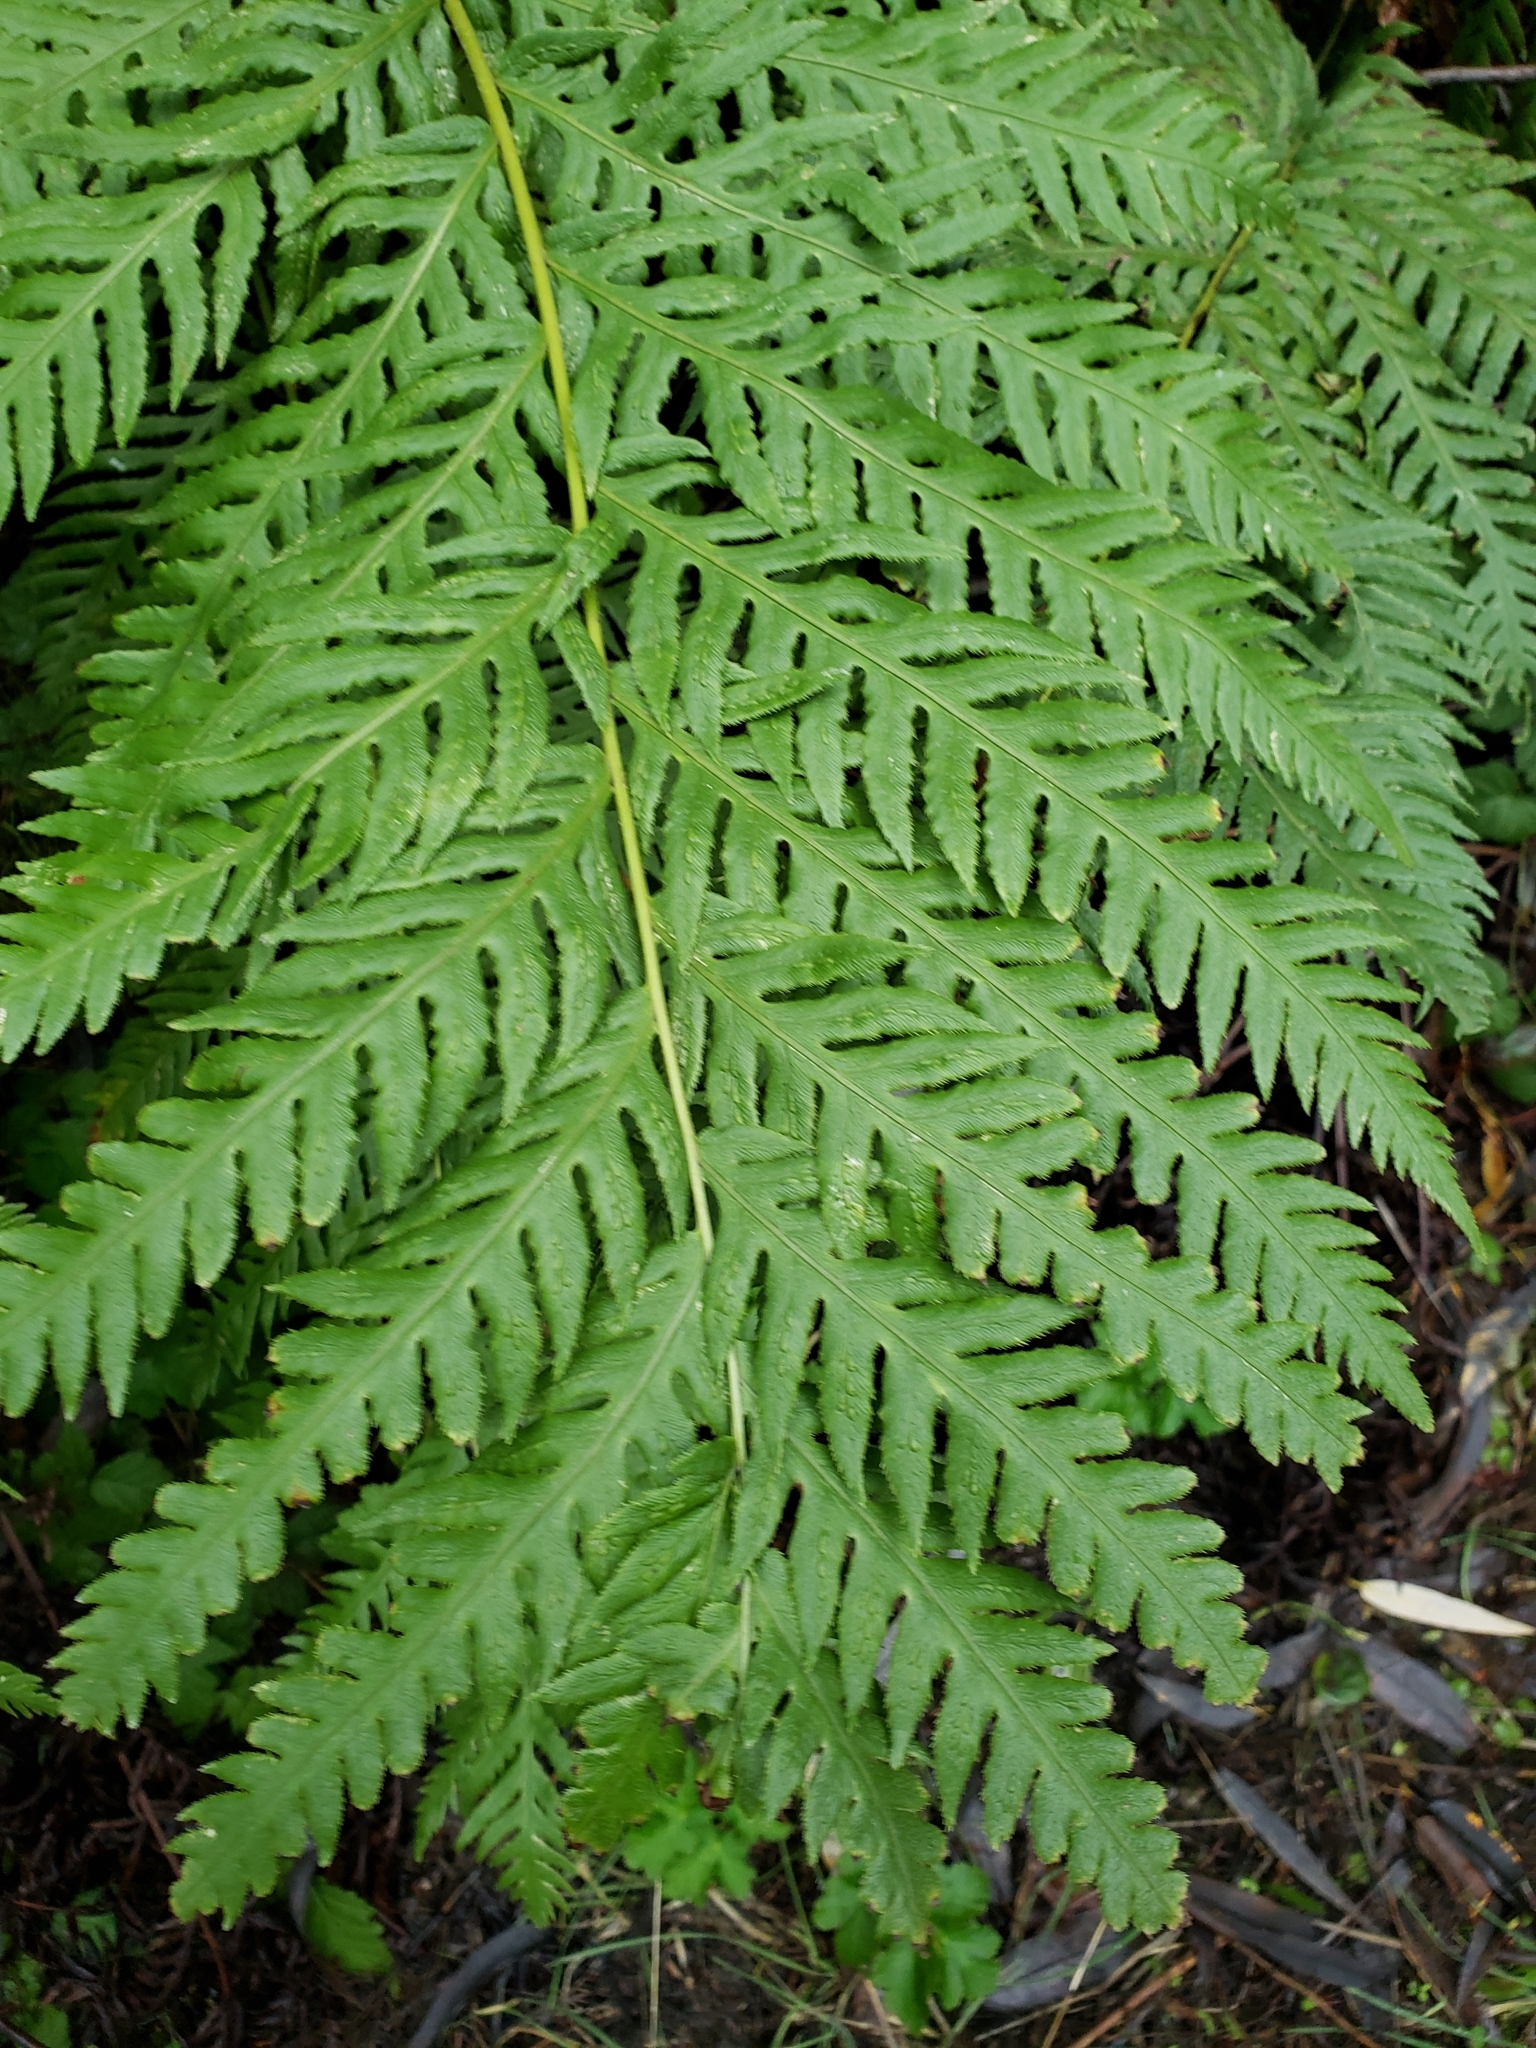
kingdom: Plantae
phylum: Tracheophyta
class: Polypodiopsida
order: Polypodiales
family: Blechnaceae
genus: Woodwardia
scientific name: Woodwardia fimbriata
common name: Giant chain fern
